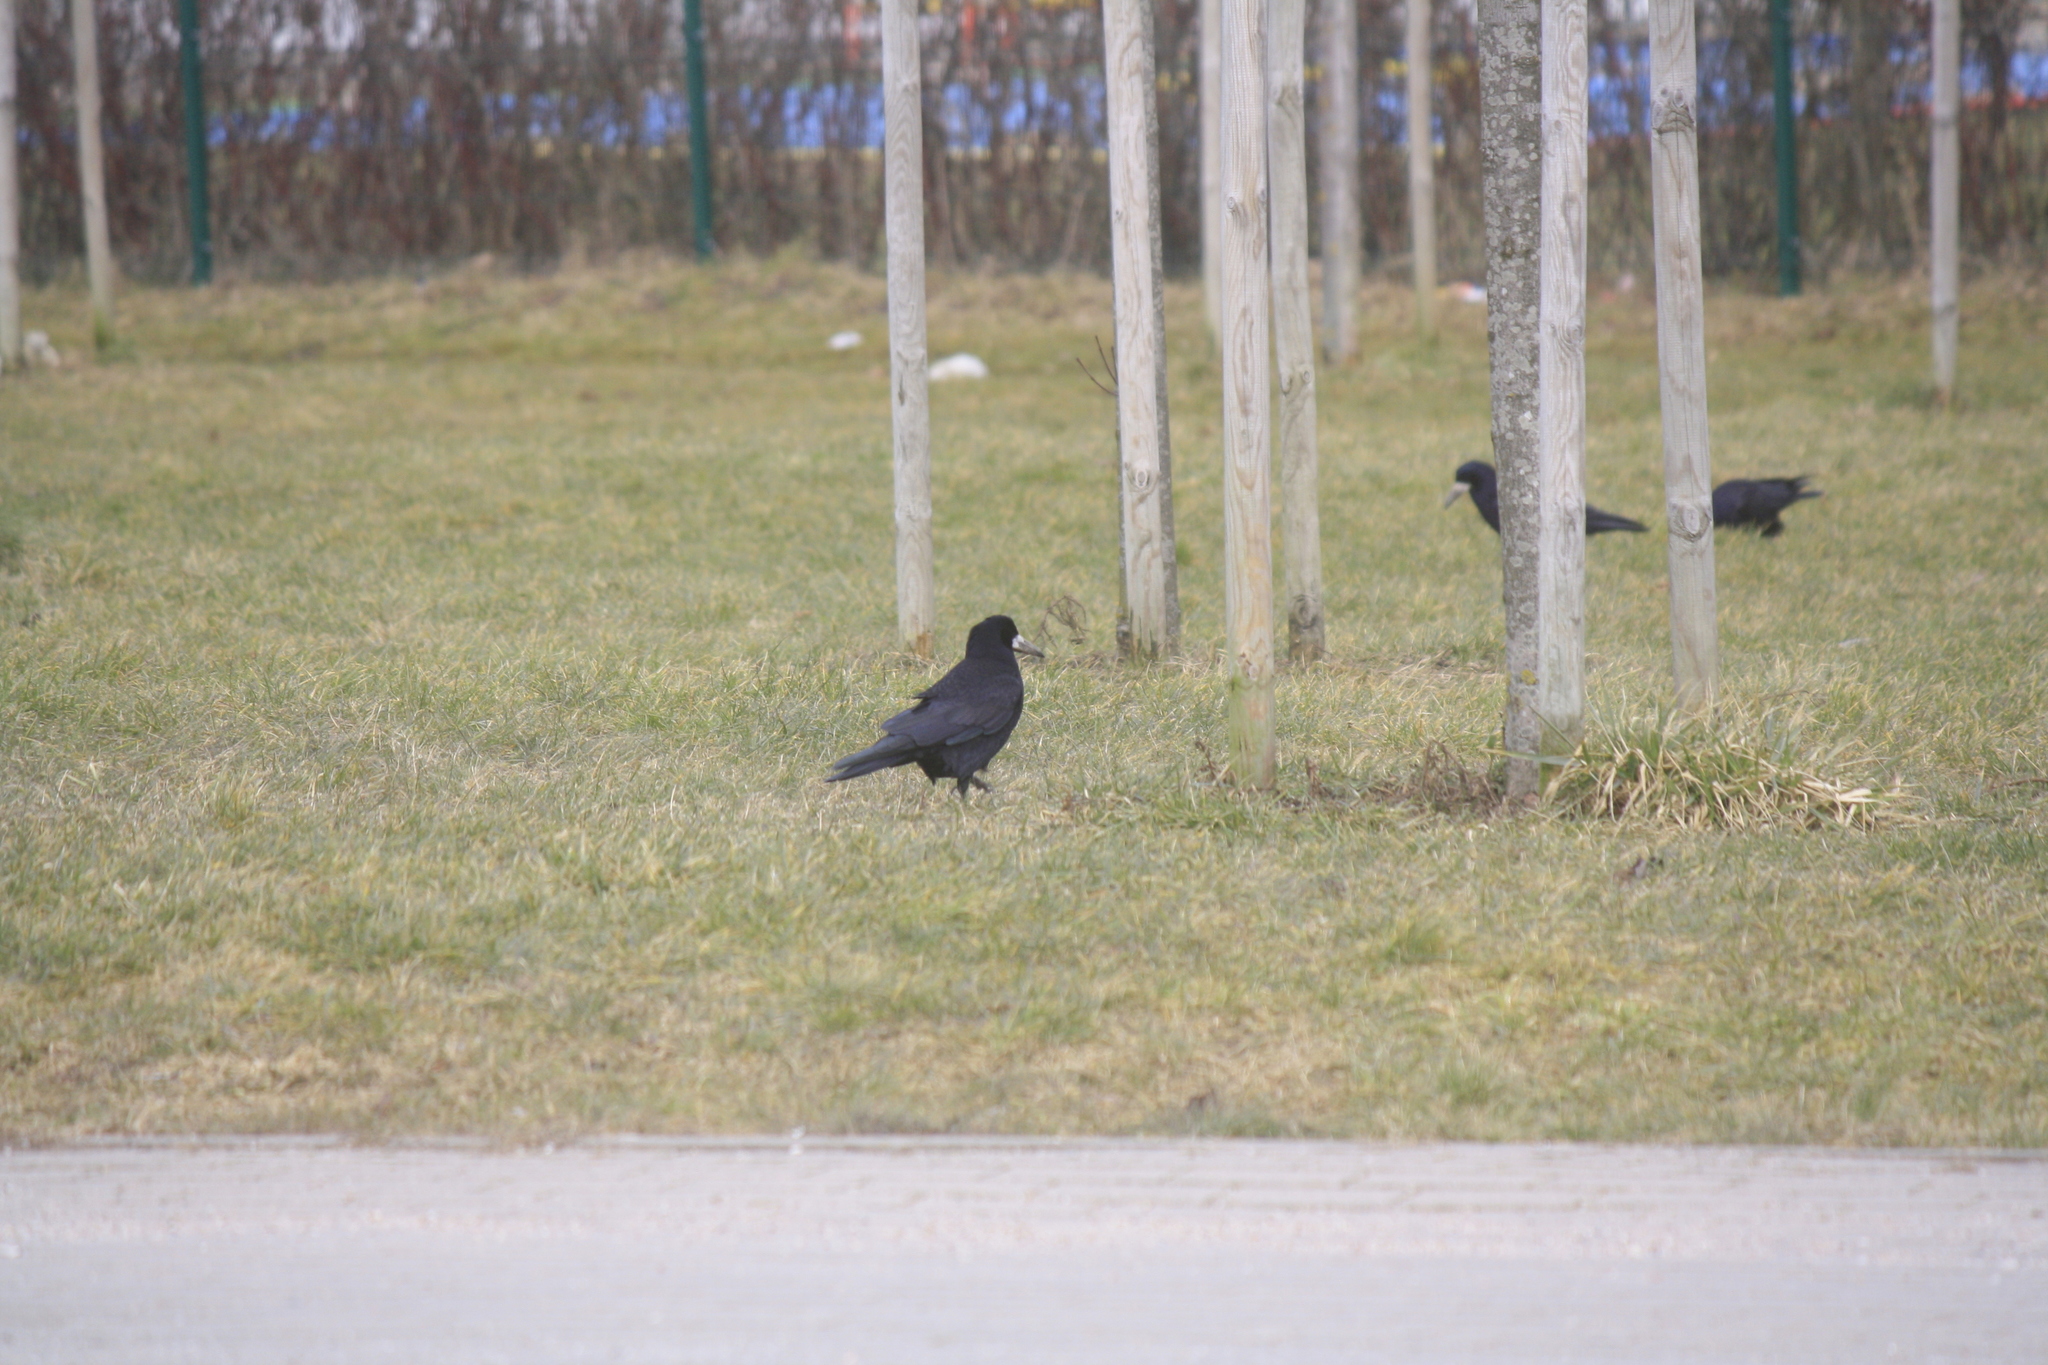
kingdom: Animalia
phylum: Chordata
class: Aves
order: Passeriformes
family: Corvidae
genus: Corvus
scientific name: Corvus frugilegus
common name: Rook
